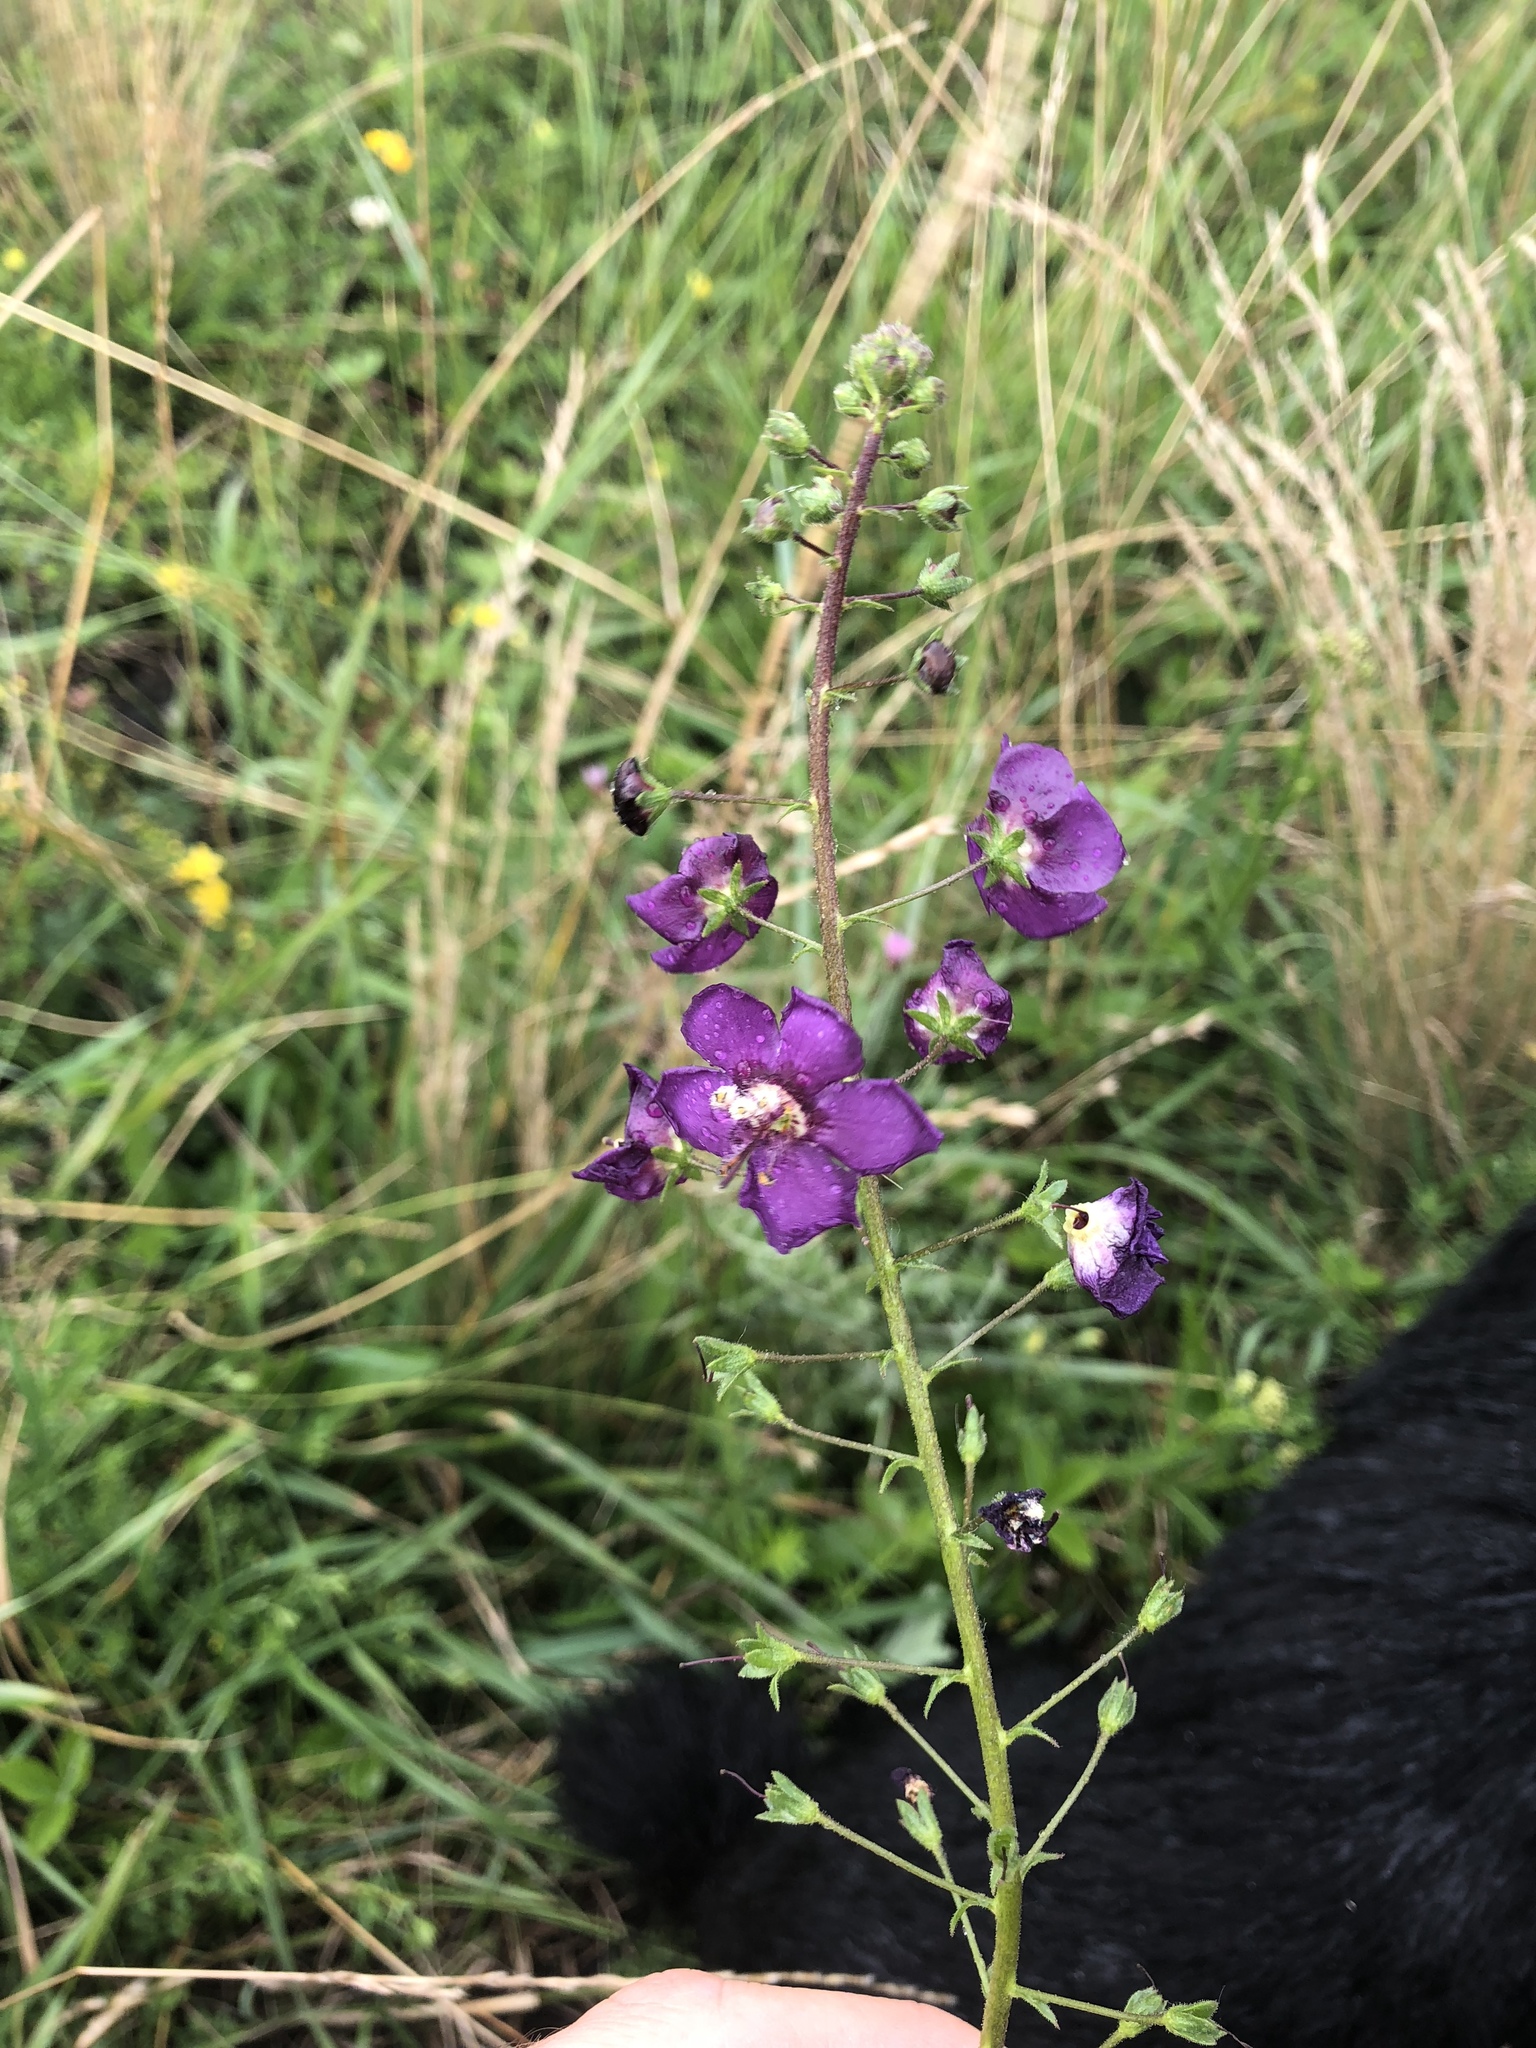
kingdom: Plantae
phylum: Tracheophyta
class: Magnoliopsida
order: Lamiales
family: Scrophulariaceae
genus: Verbascum
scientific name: Verbascum phoeniceum
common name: Purple mullein
